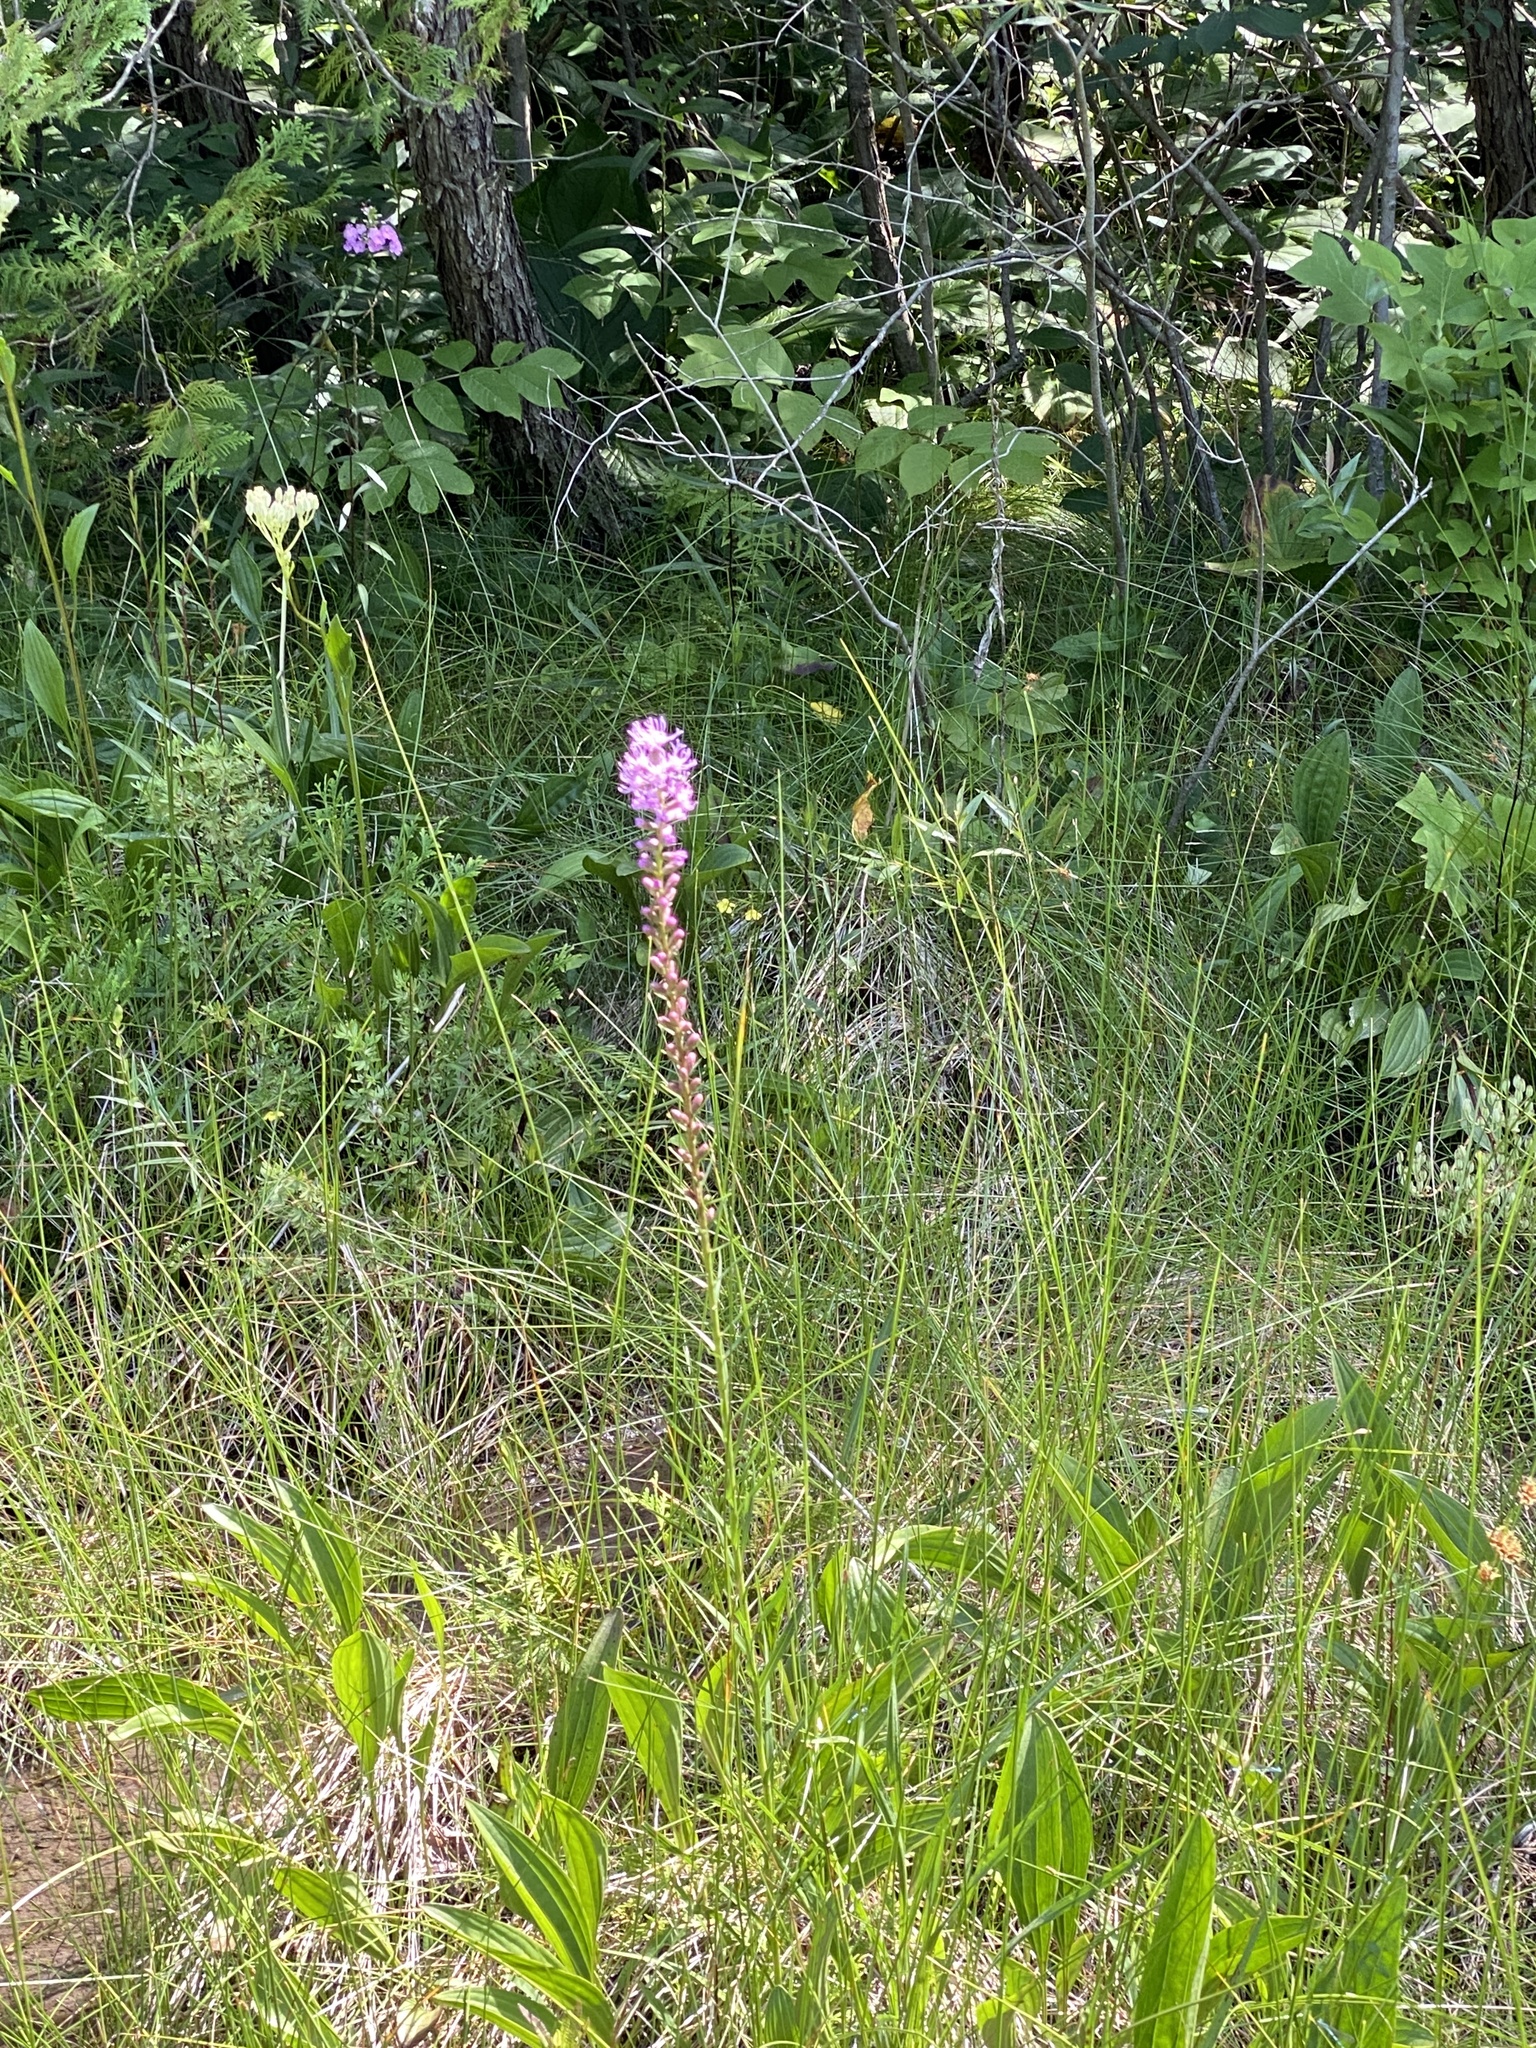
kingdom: Plantae
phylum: Tracheophyta
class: Magnoliopsida
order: Asterales
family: Asteraceae
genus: Liatris
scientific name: Liatris spicata
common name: Florist gayfeather
